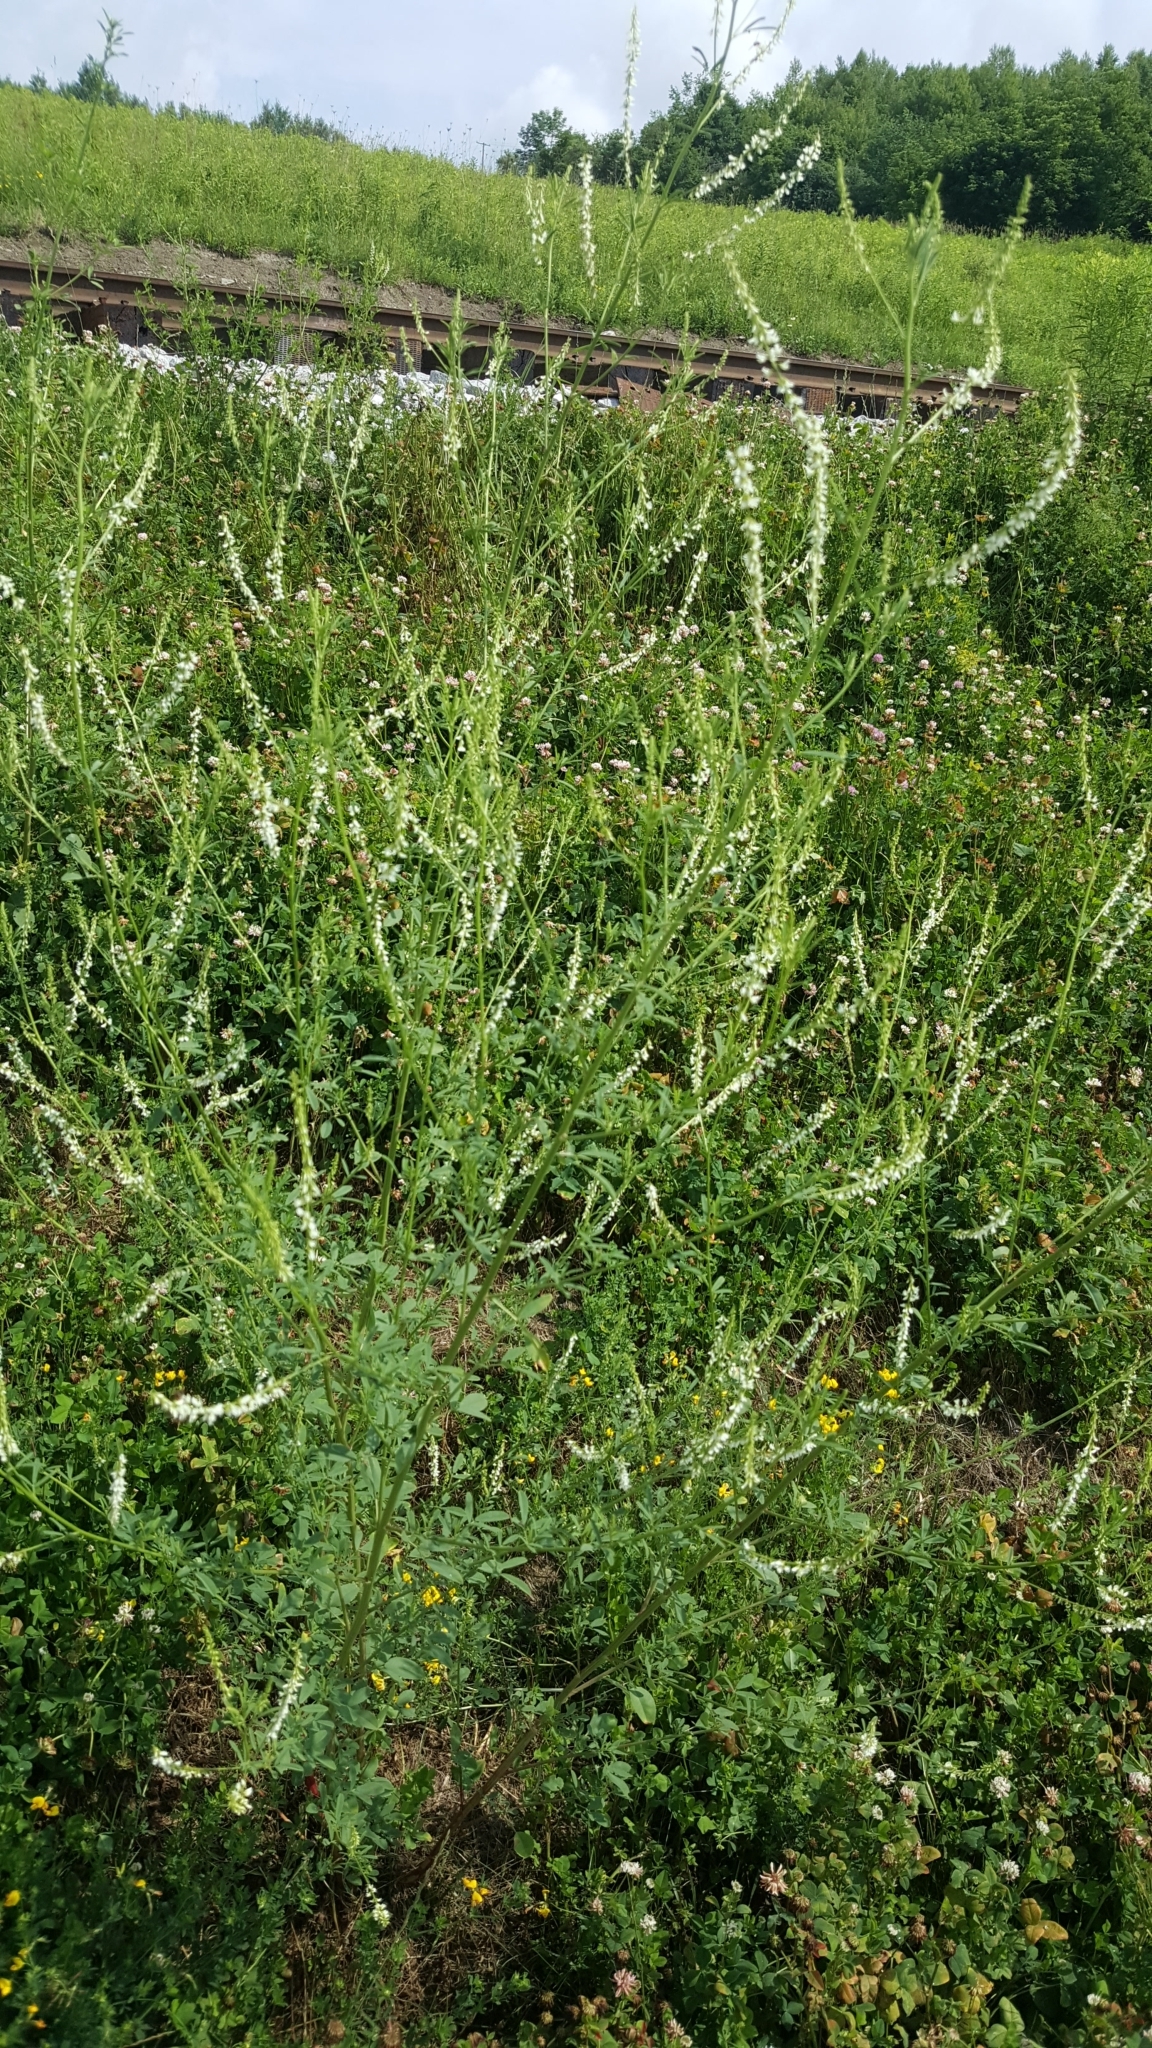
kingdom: Plantae
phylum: Tracheophyta
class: Magnoliopsida
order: Fabales
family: Fabaceae
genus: Melilotus
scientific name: Melilotus albus
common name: White melilot
